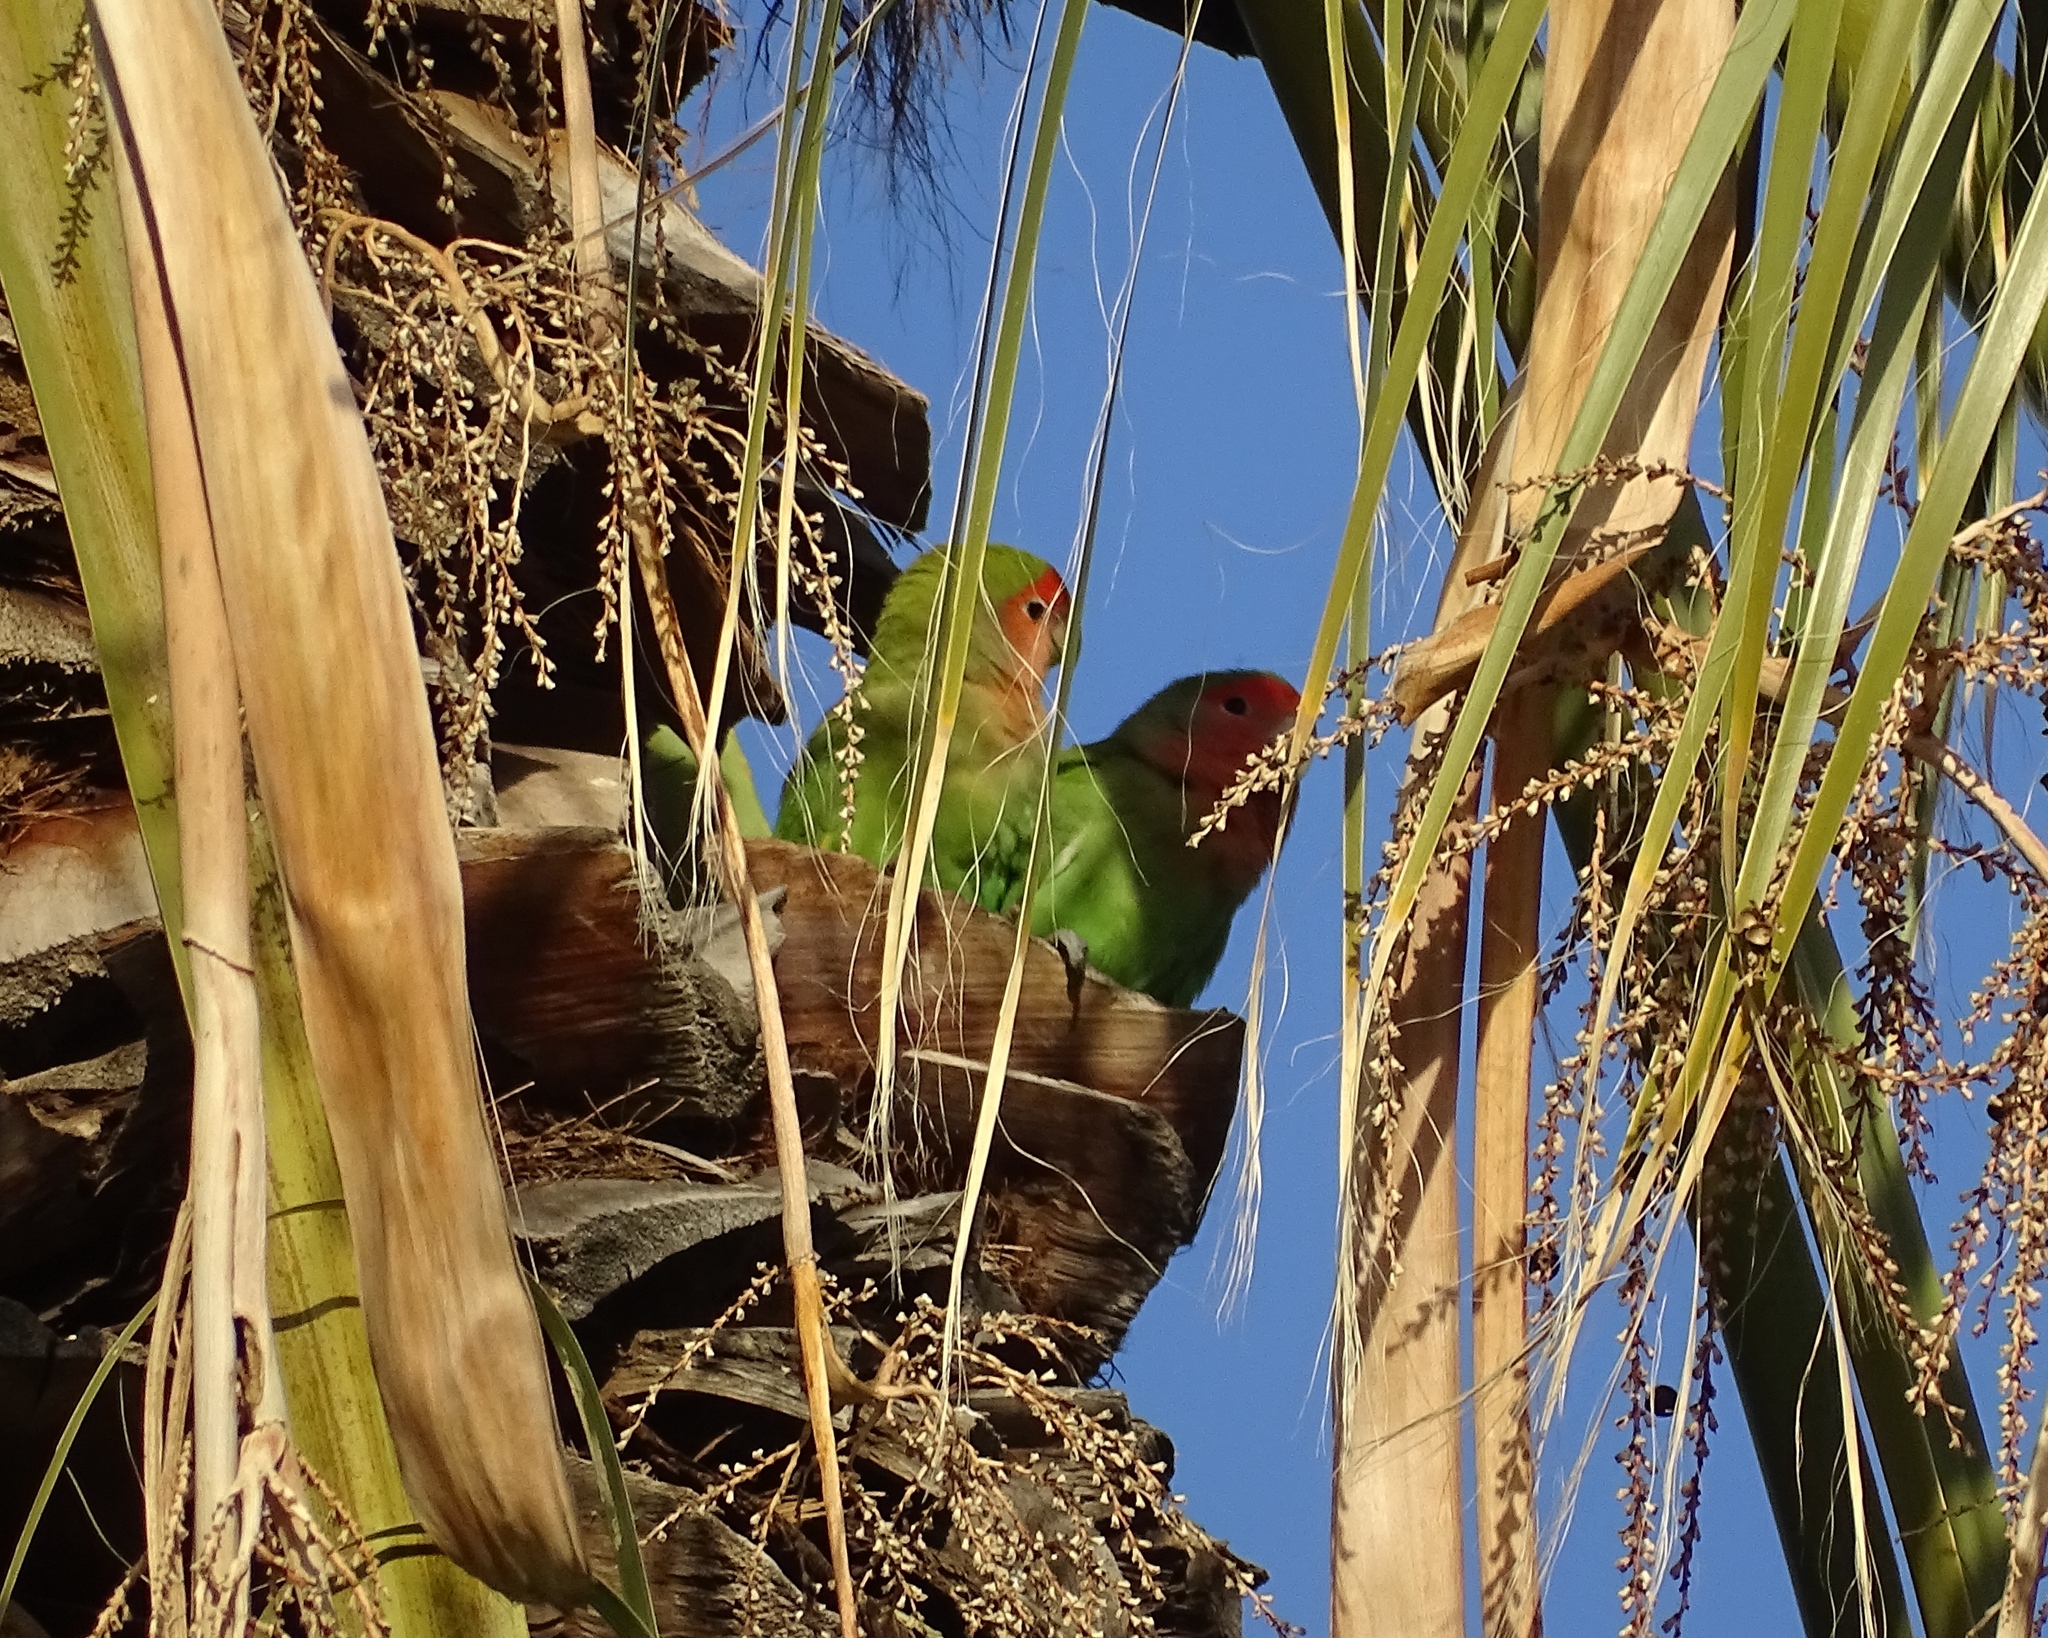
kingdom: Animalia
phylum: Chordata
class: Aves
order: Psittaciformes
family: Psittacidae
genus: Agapornis
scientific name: Agapornis roseicollis
